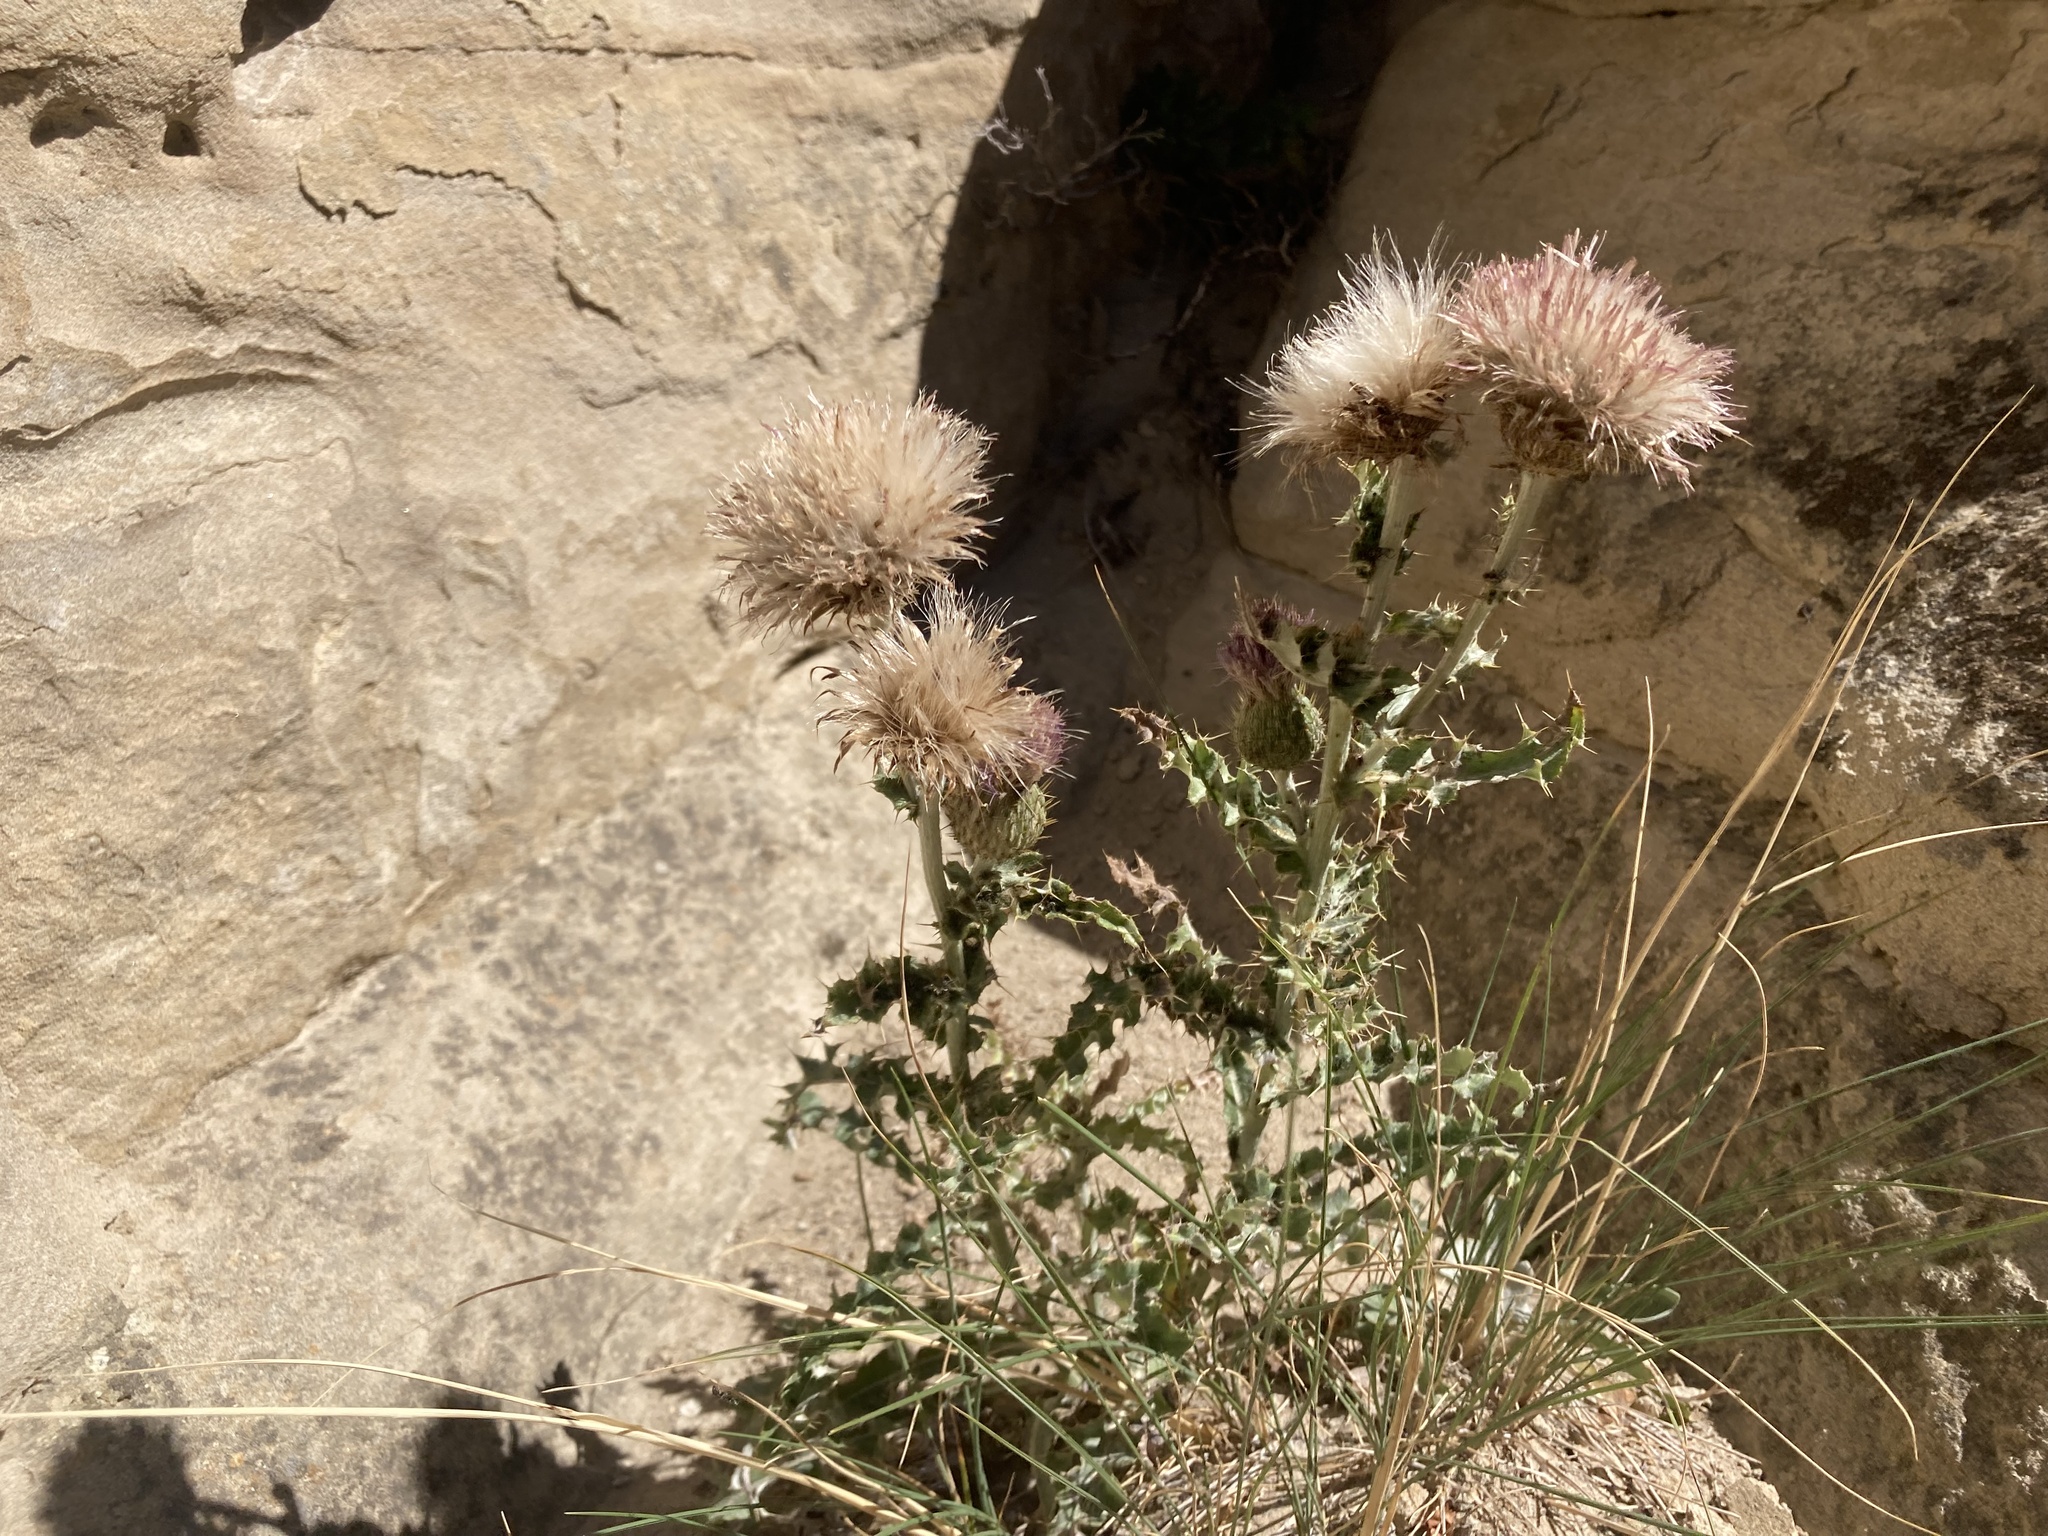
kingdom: Plantae
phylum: Tracheophyta
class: Magnoliopsida
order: Asterales
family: Asteraceae
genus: Cirsium
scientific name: Cirsium undulatum
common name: Pasture thistle
